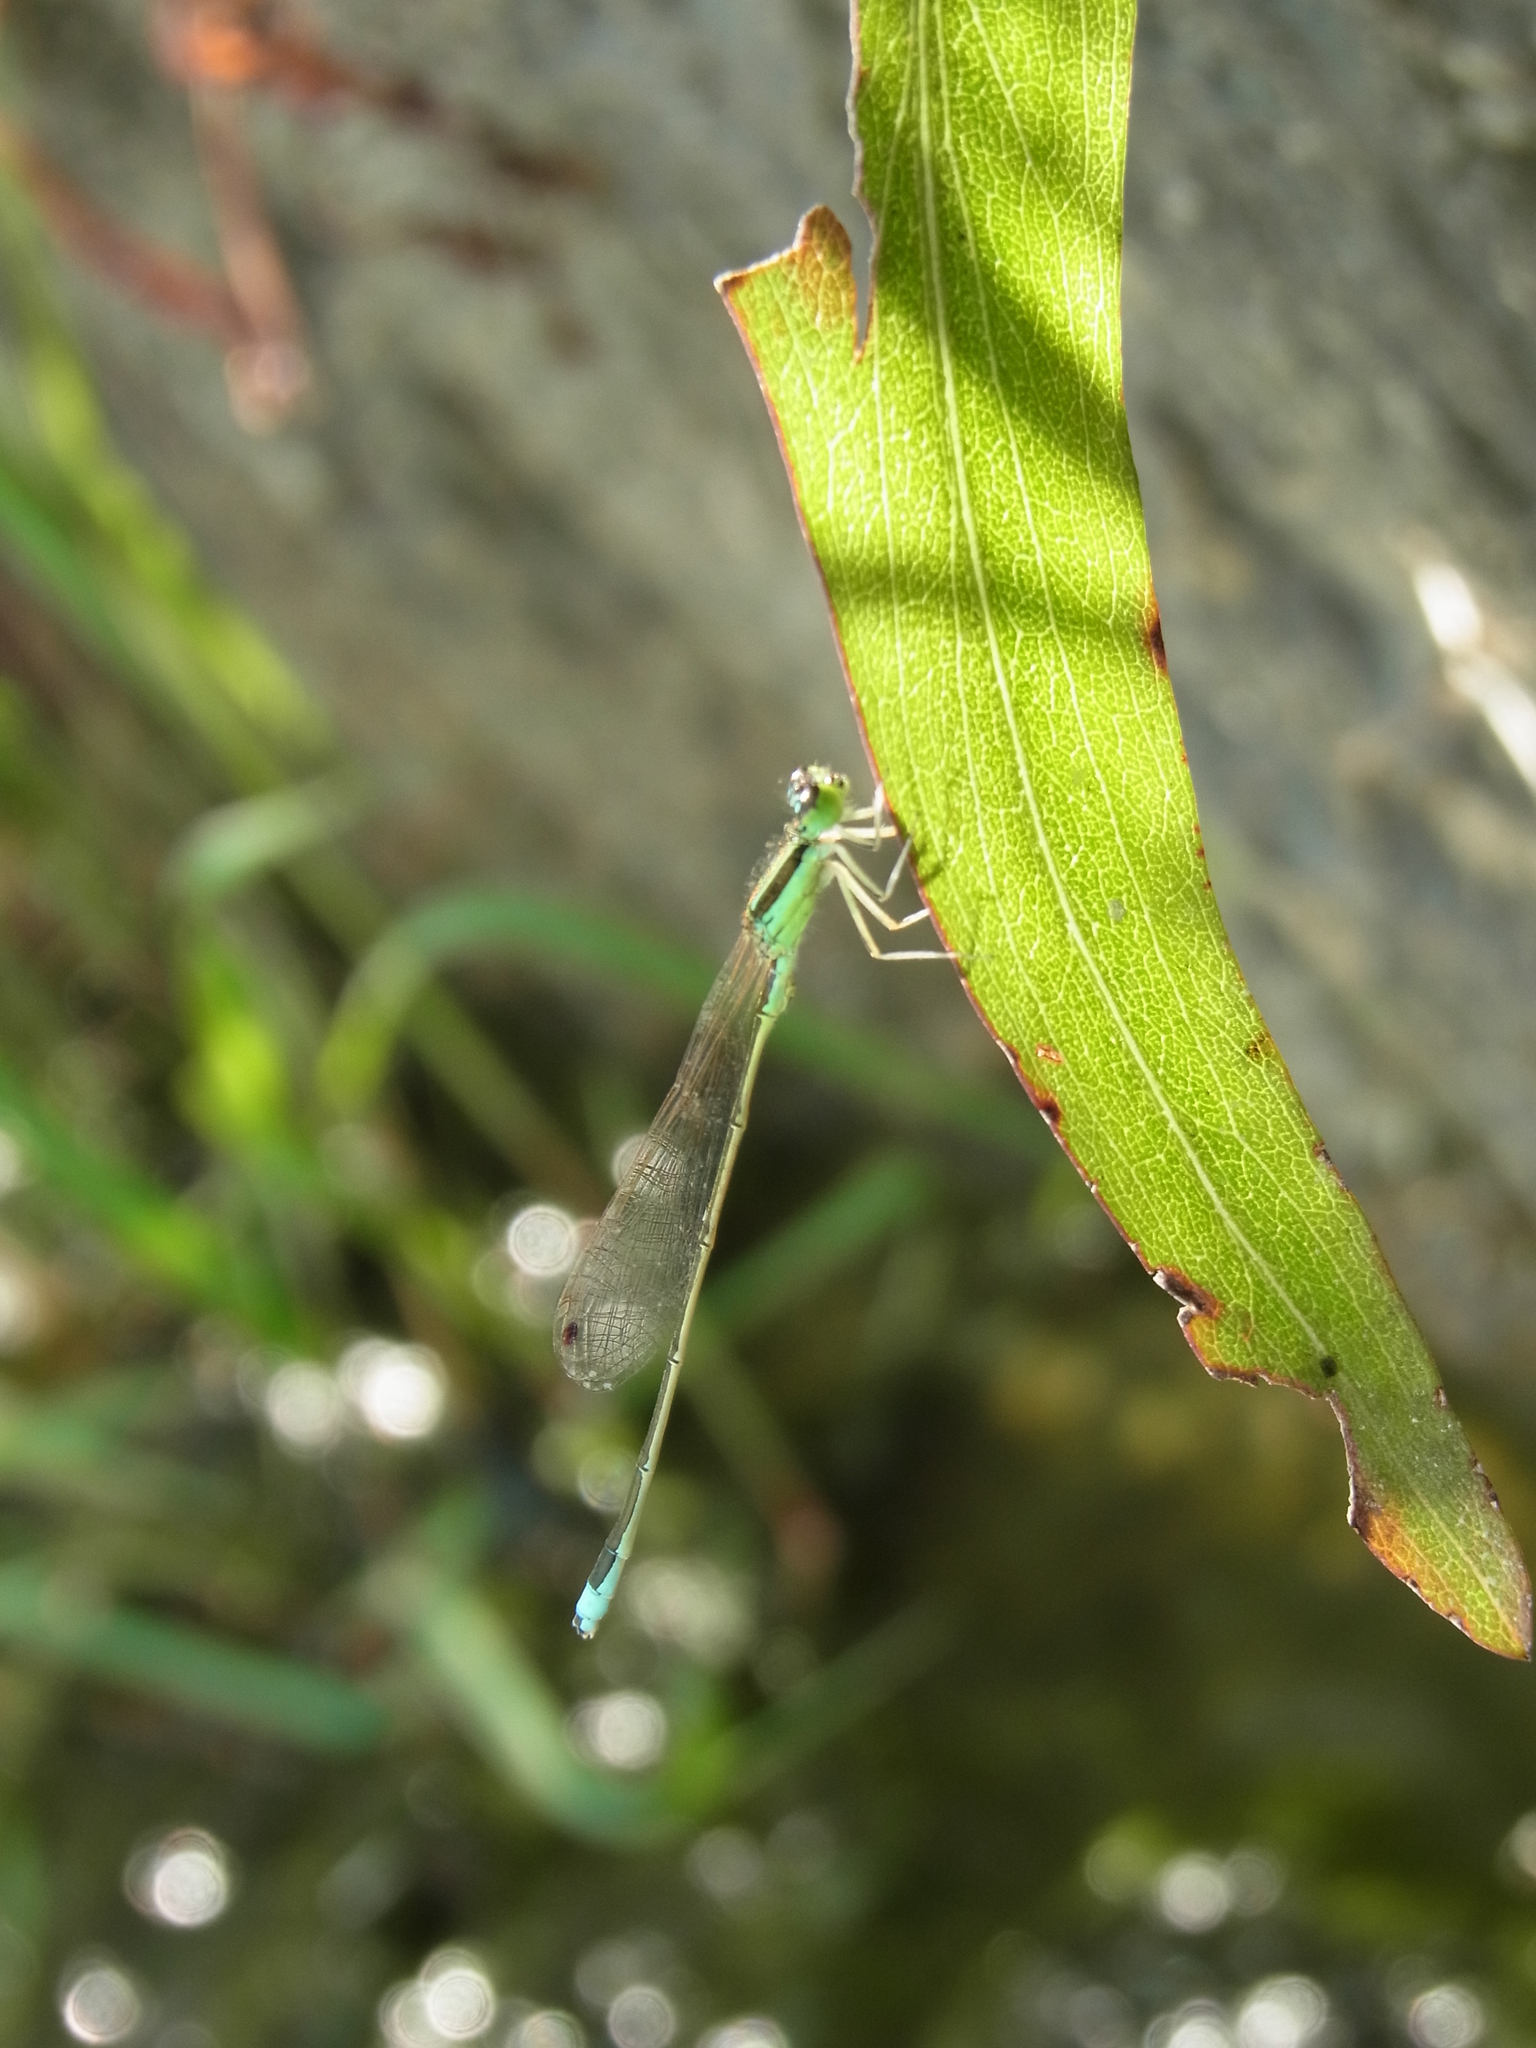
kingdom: Animalia
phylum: Arthropoda
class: Insecta
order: Odonata
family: Coenagrionidae
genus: Ischnura
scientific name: Ischnura asiatica
